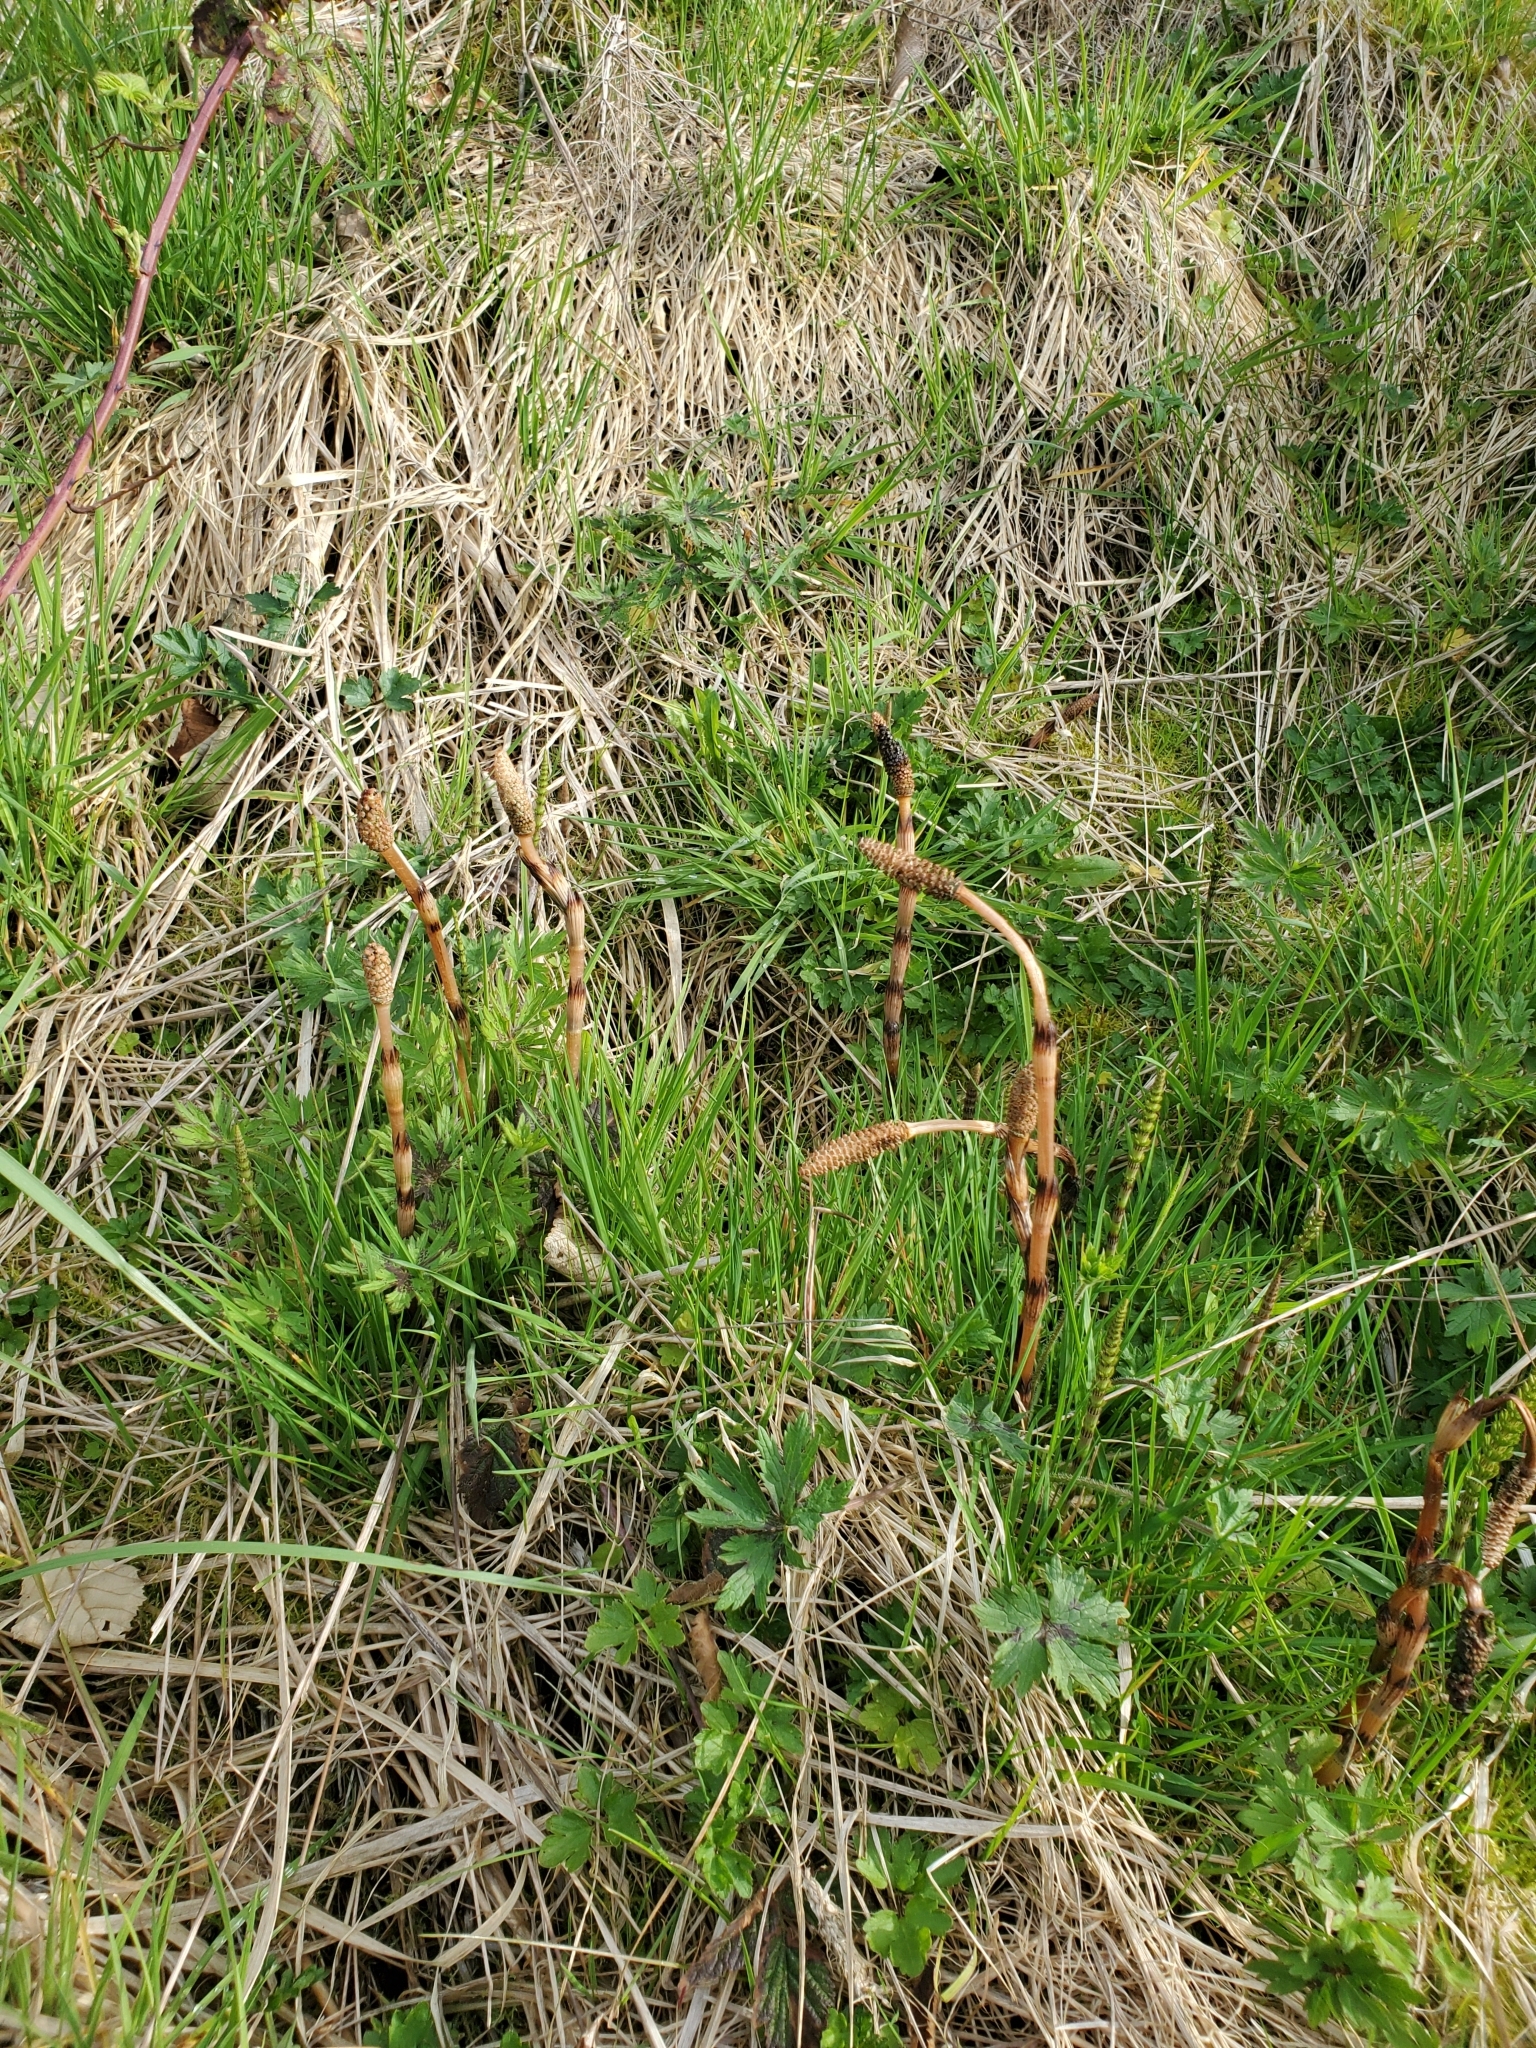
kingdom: Plantae
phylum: Tracheophyta
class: Polypodiopsida
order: Equisetales
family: Equisetaceae
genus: Equisetum
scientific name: Equisetum arvense
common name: Field horsetail
